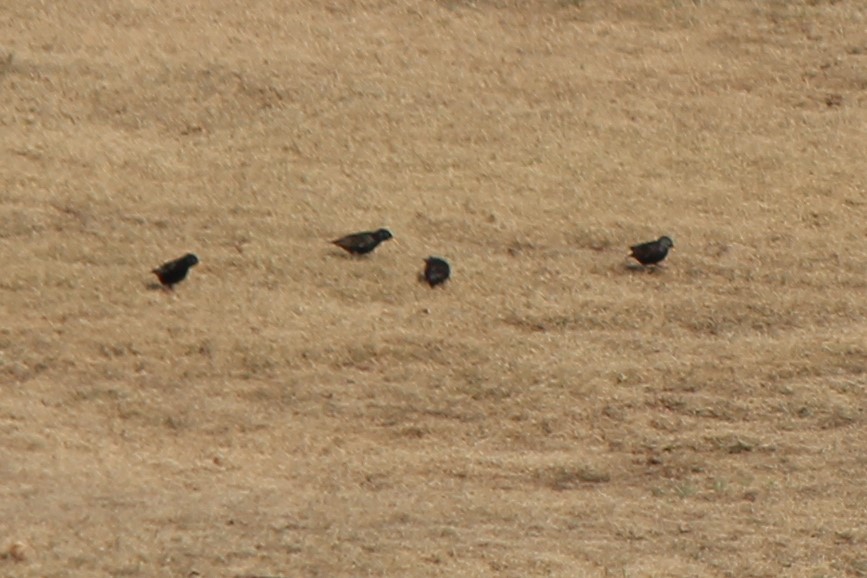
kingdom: Animalia
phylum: Chordata
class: Aves
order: Passeriformes
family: Sturnidae
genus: Sturnus
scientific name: Sturnus vulgaris
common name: Common starling
